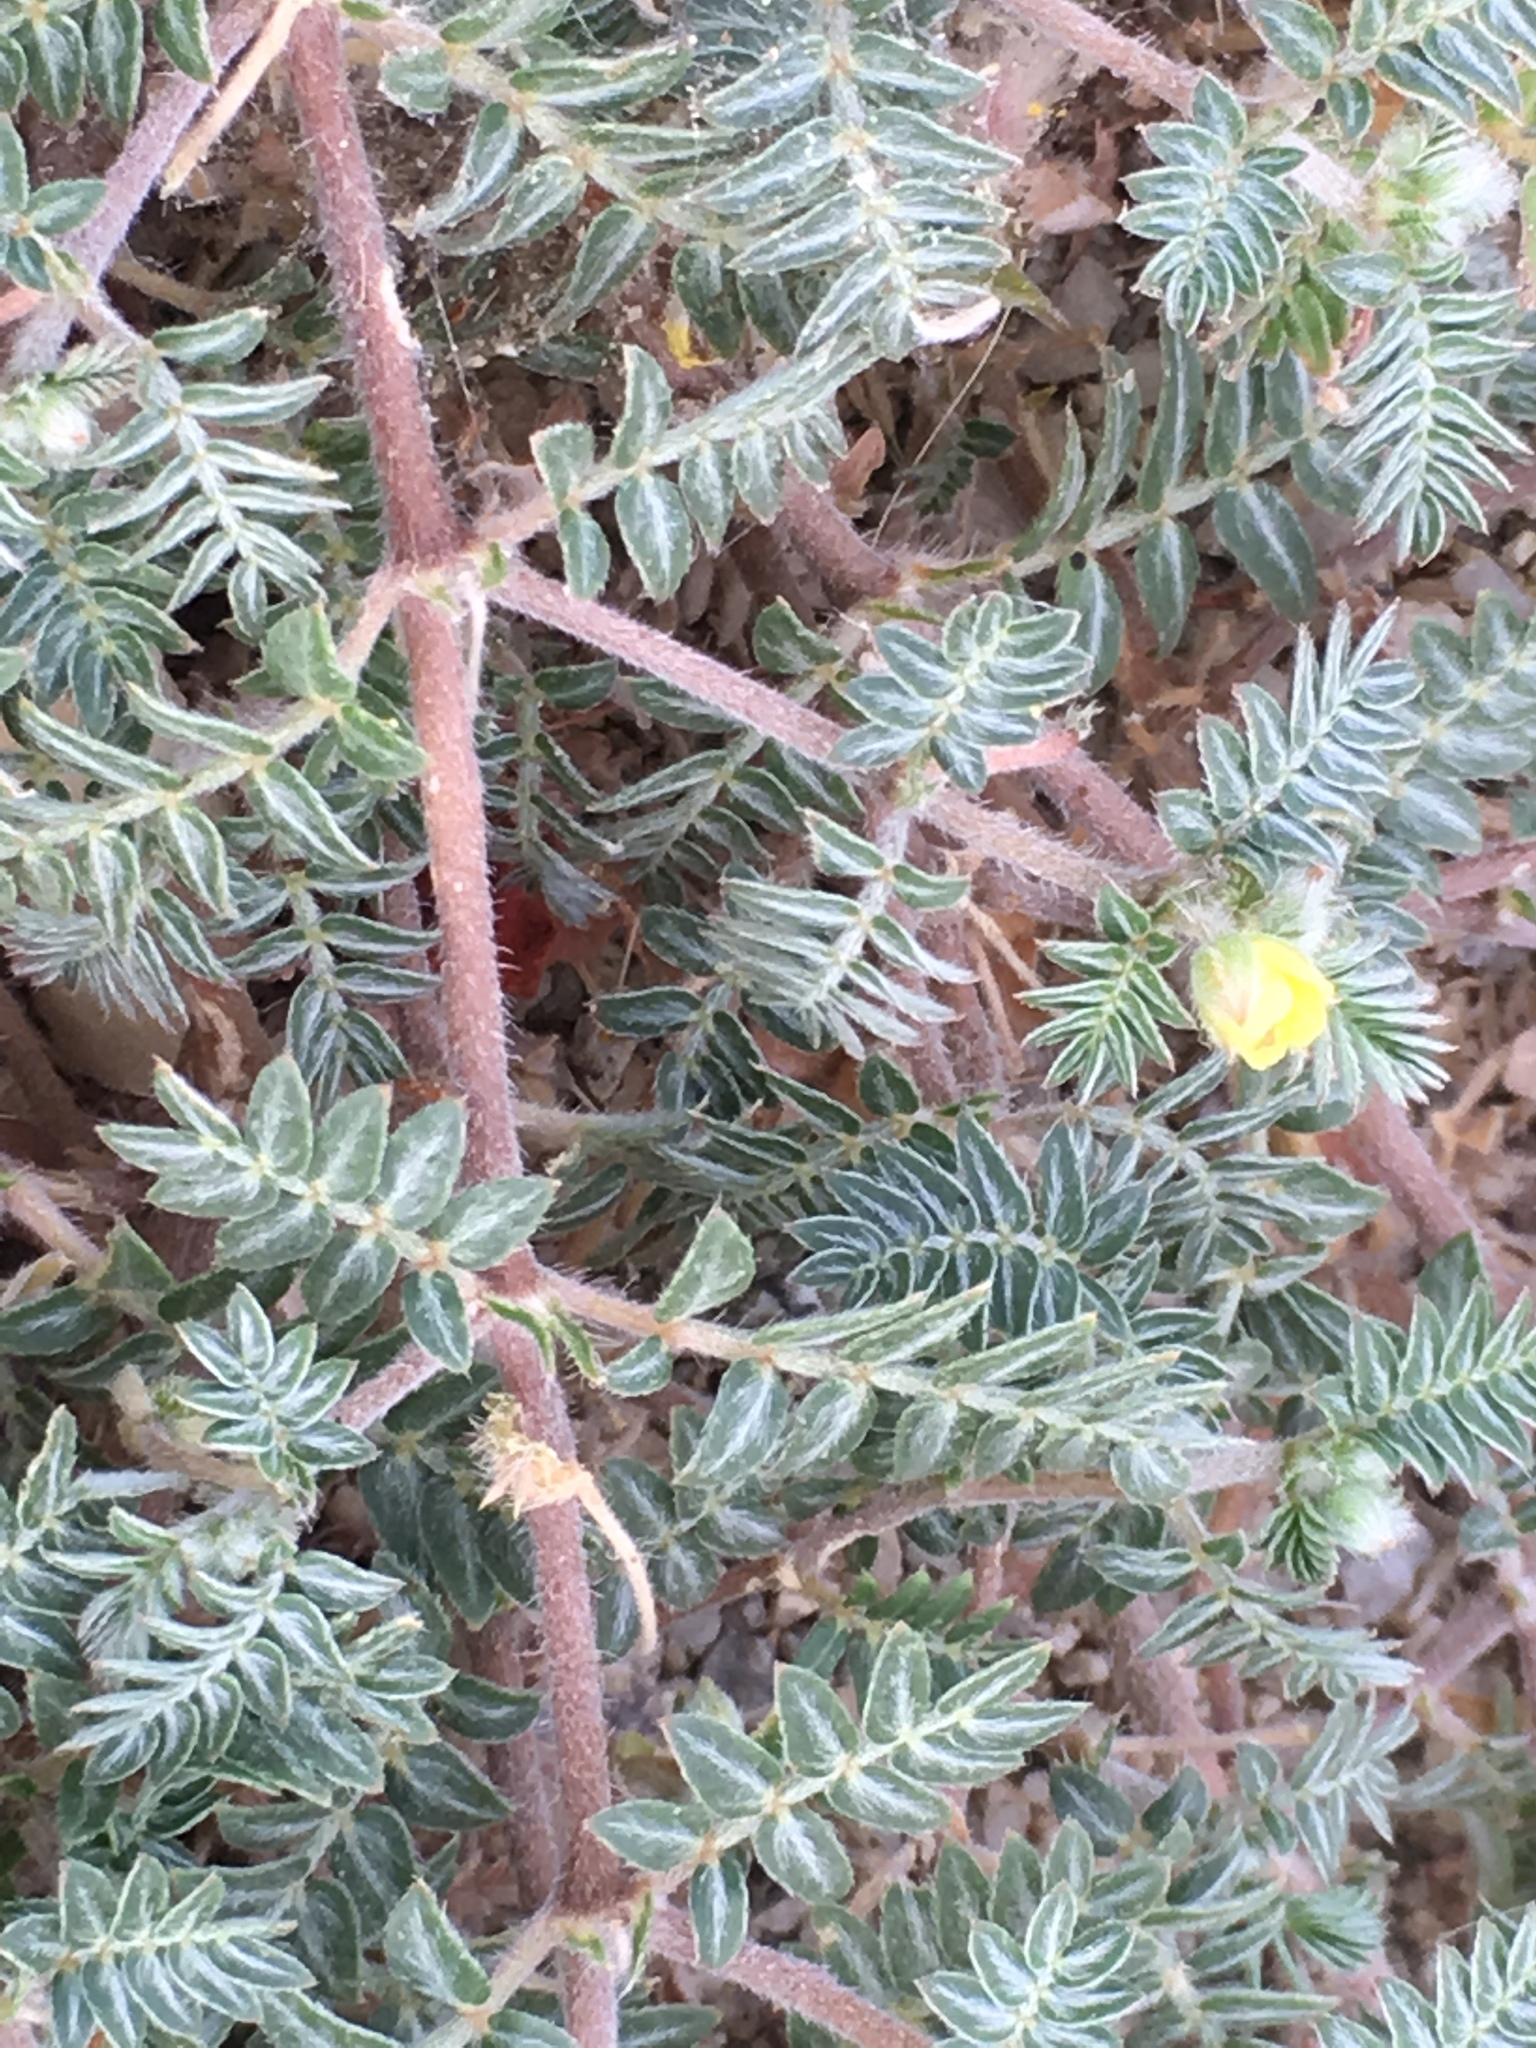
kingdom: Plantae
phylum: Tracheophyta
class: Magnoliopsida
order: Zygophyllales
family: Zygophyllaceae
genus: Tribulus
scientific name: Tribulus terrestris
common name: Puncturevine
